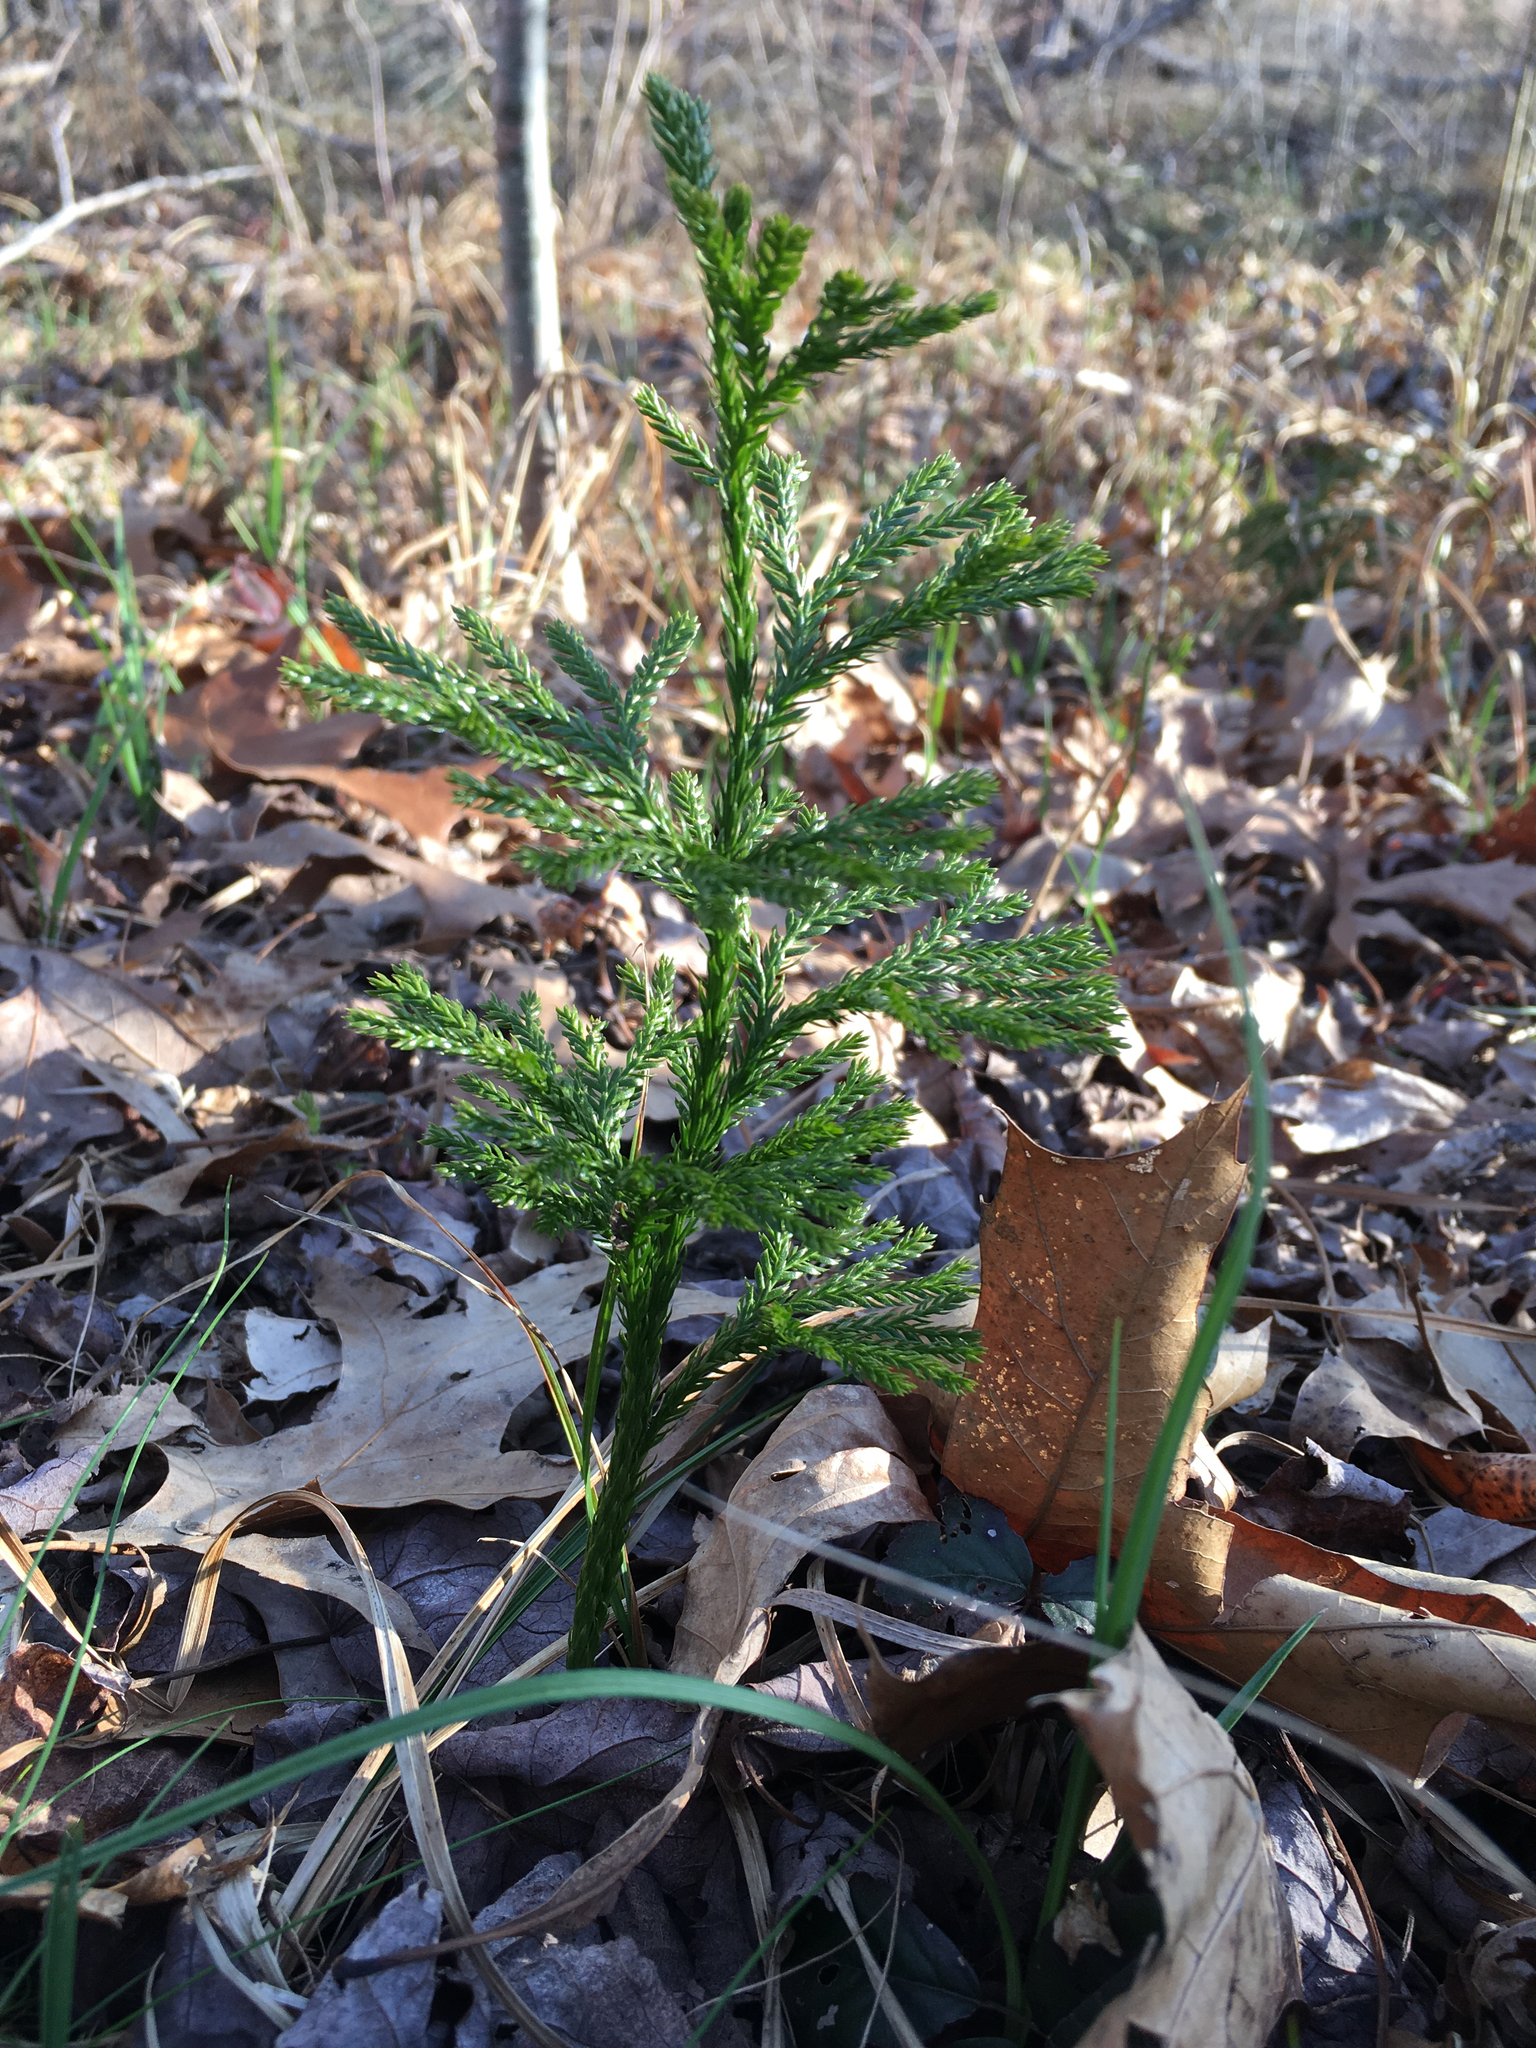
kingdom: Plantae
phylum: Tracheophyta
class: Lycopodiopsida
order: Lycopodiales
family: Lycopodiaceae
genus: Dendrolycopodium
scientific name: Dendrolycopodium obscurum
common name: Common ground-pine
